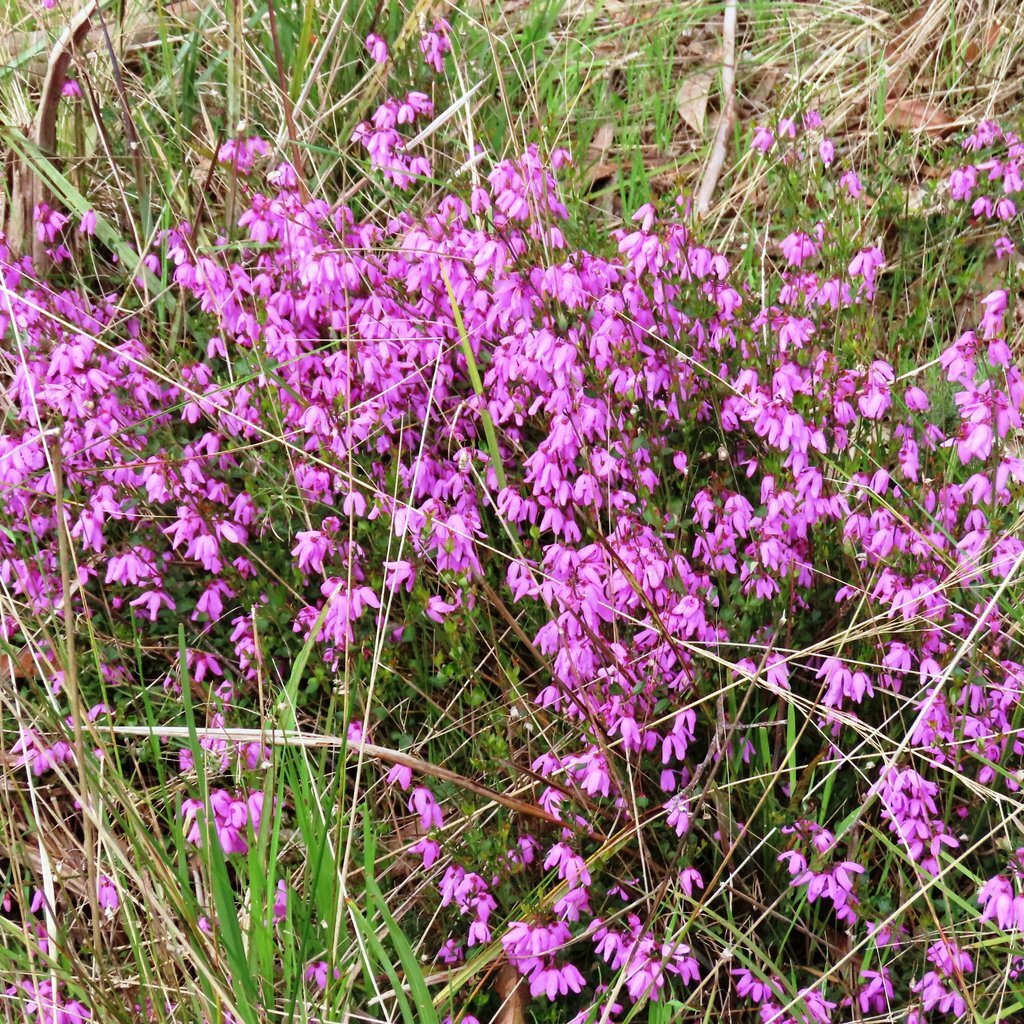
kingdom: Plantae
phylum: Tracheophyta
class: Magnoliopsida
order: Oxalidales
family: Elaeocarpaceae
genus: Tetratheca
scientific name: Tetratheca ciliata
